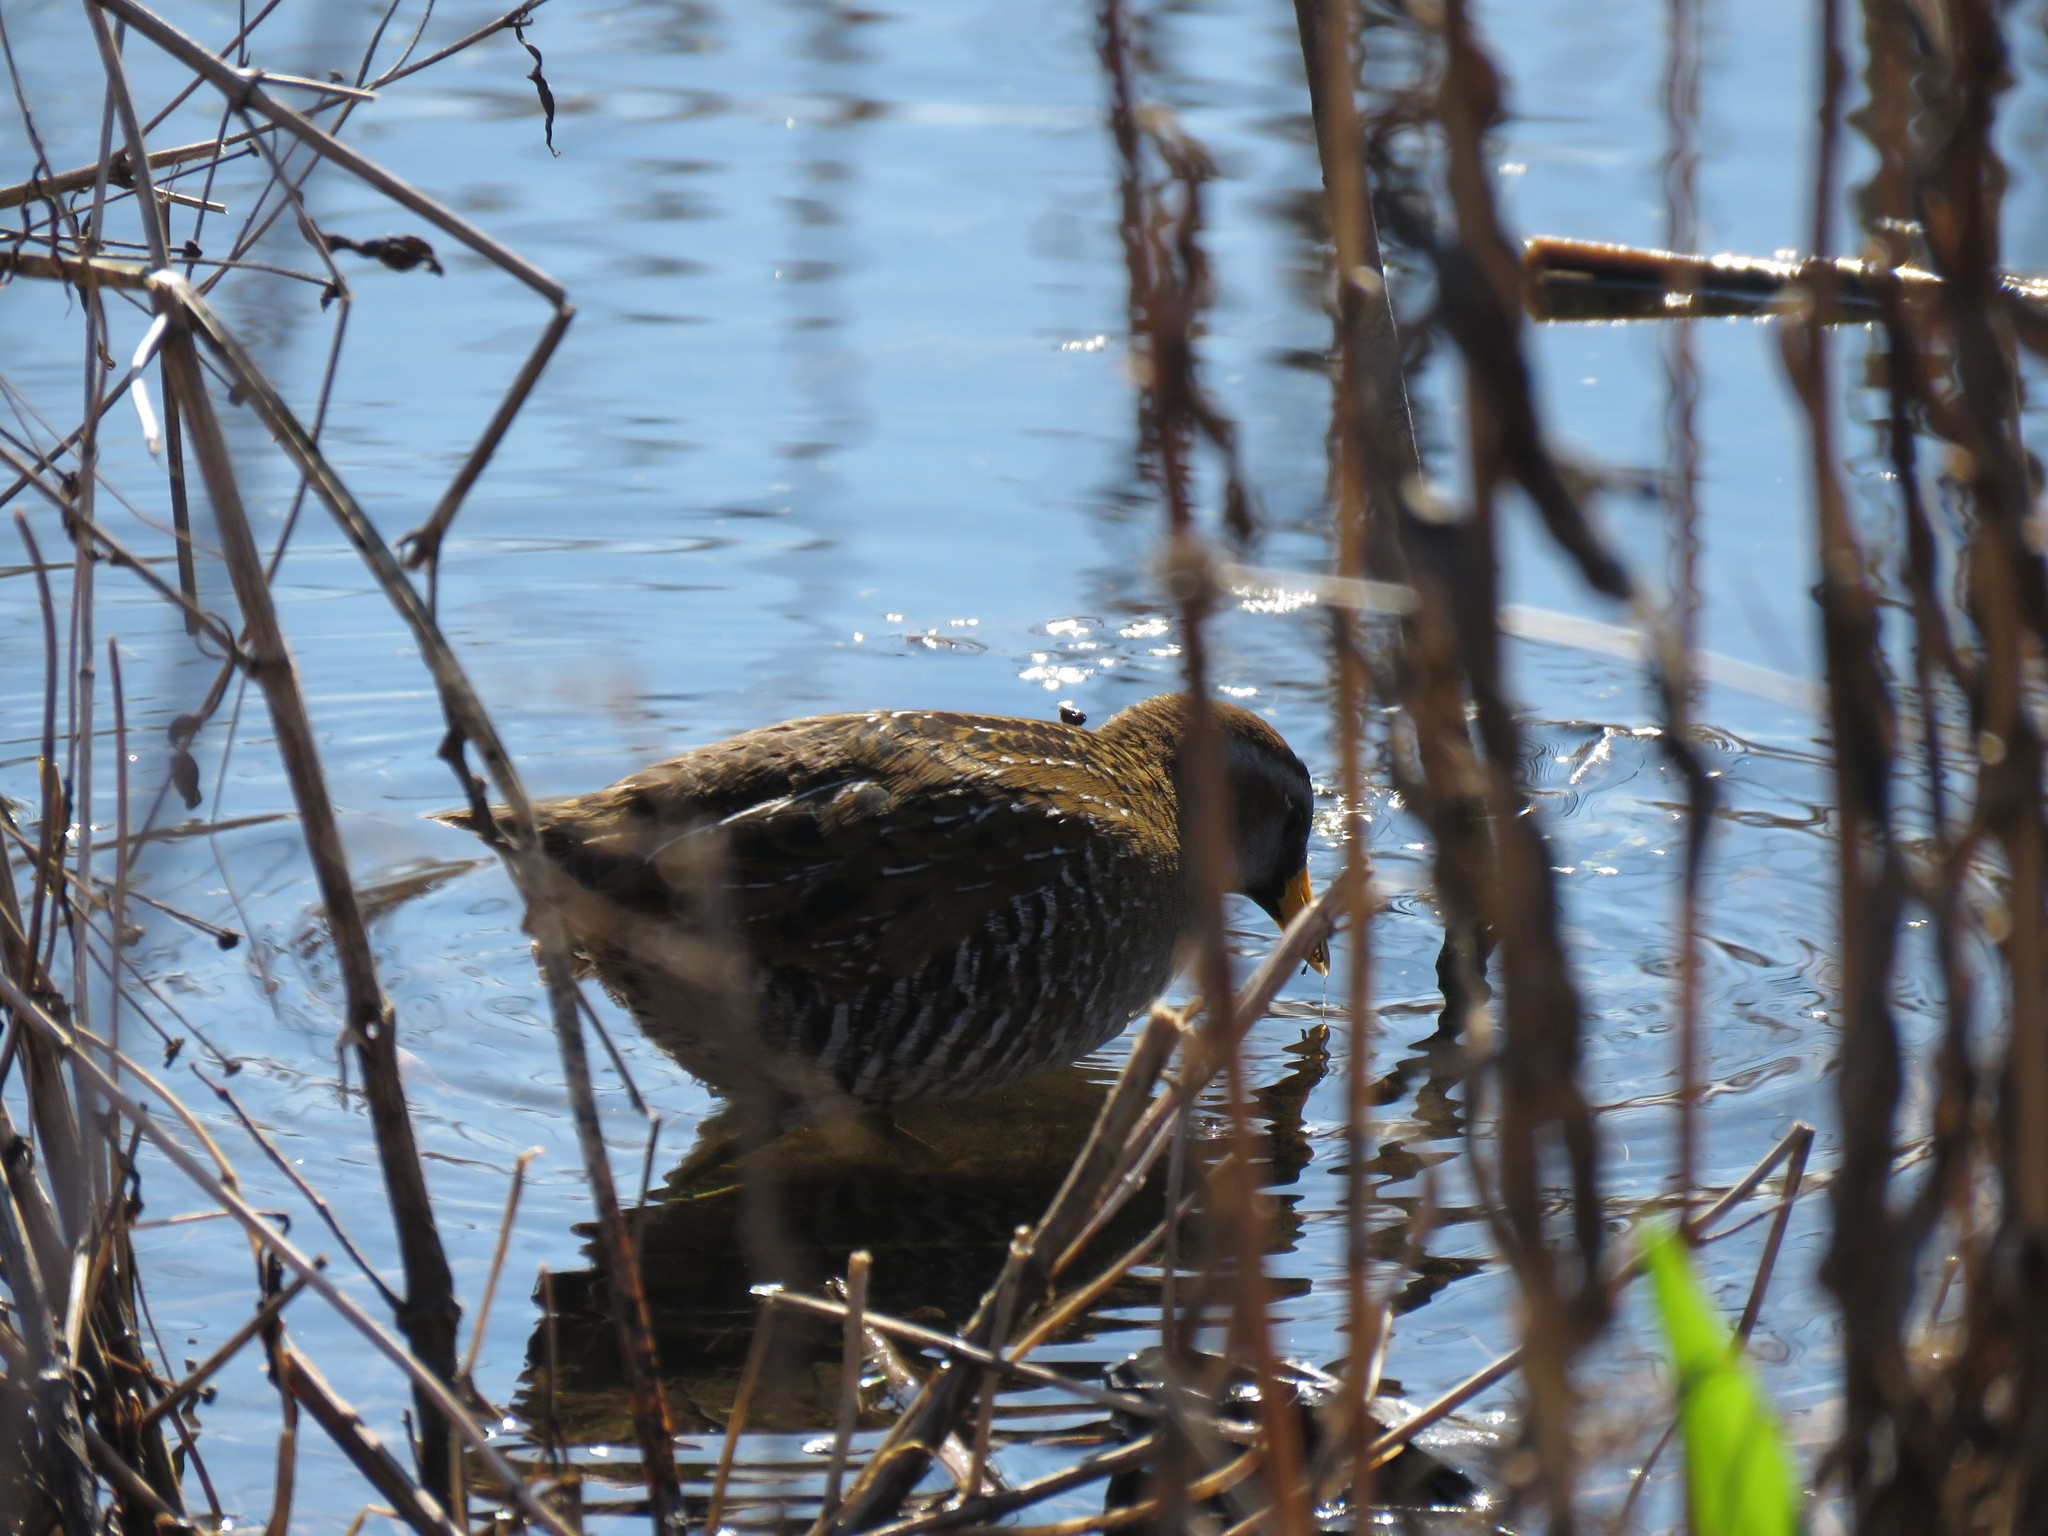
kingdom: Animalia
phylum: Chordata
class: Aves
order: Gruiformes
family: Rallidae
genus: Porzana
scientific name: Porzana carolina
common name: Sora
